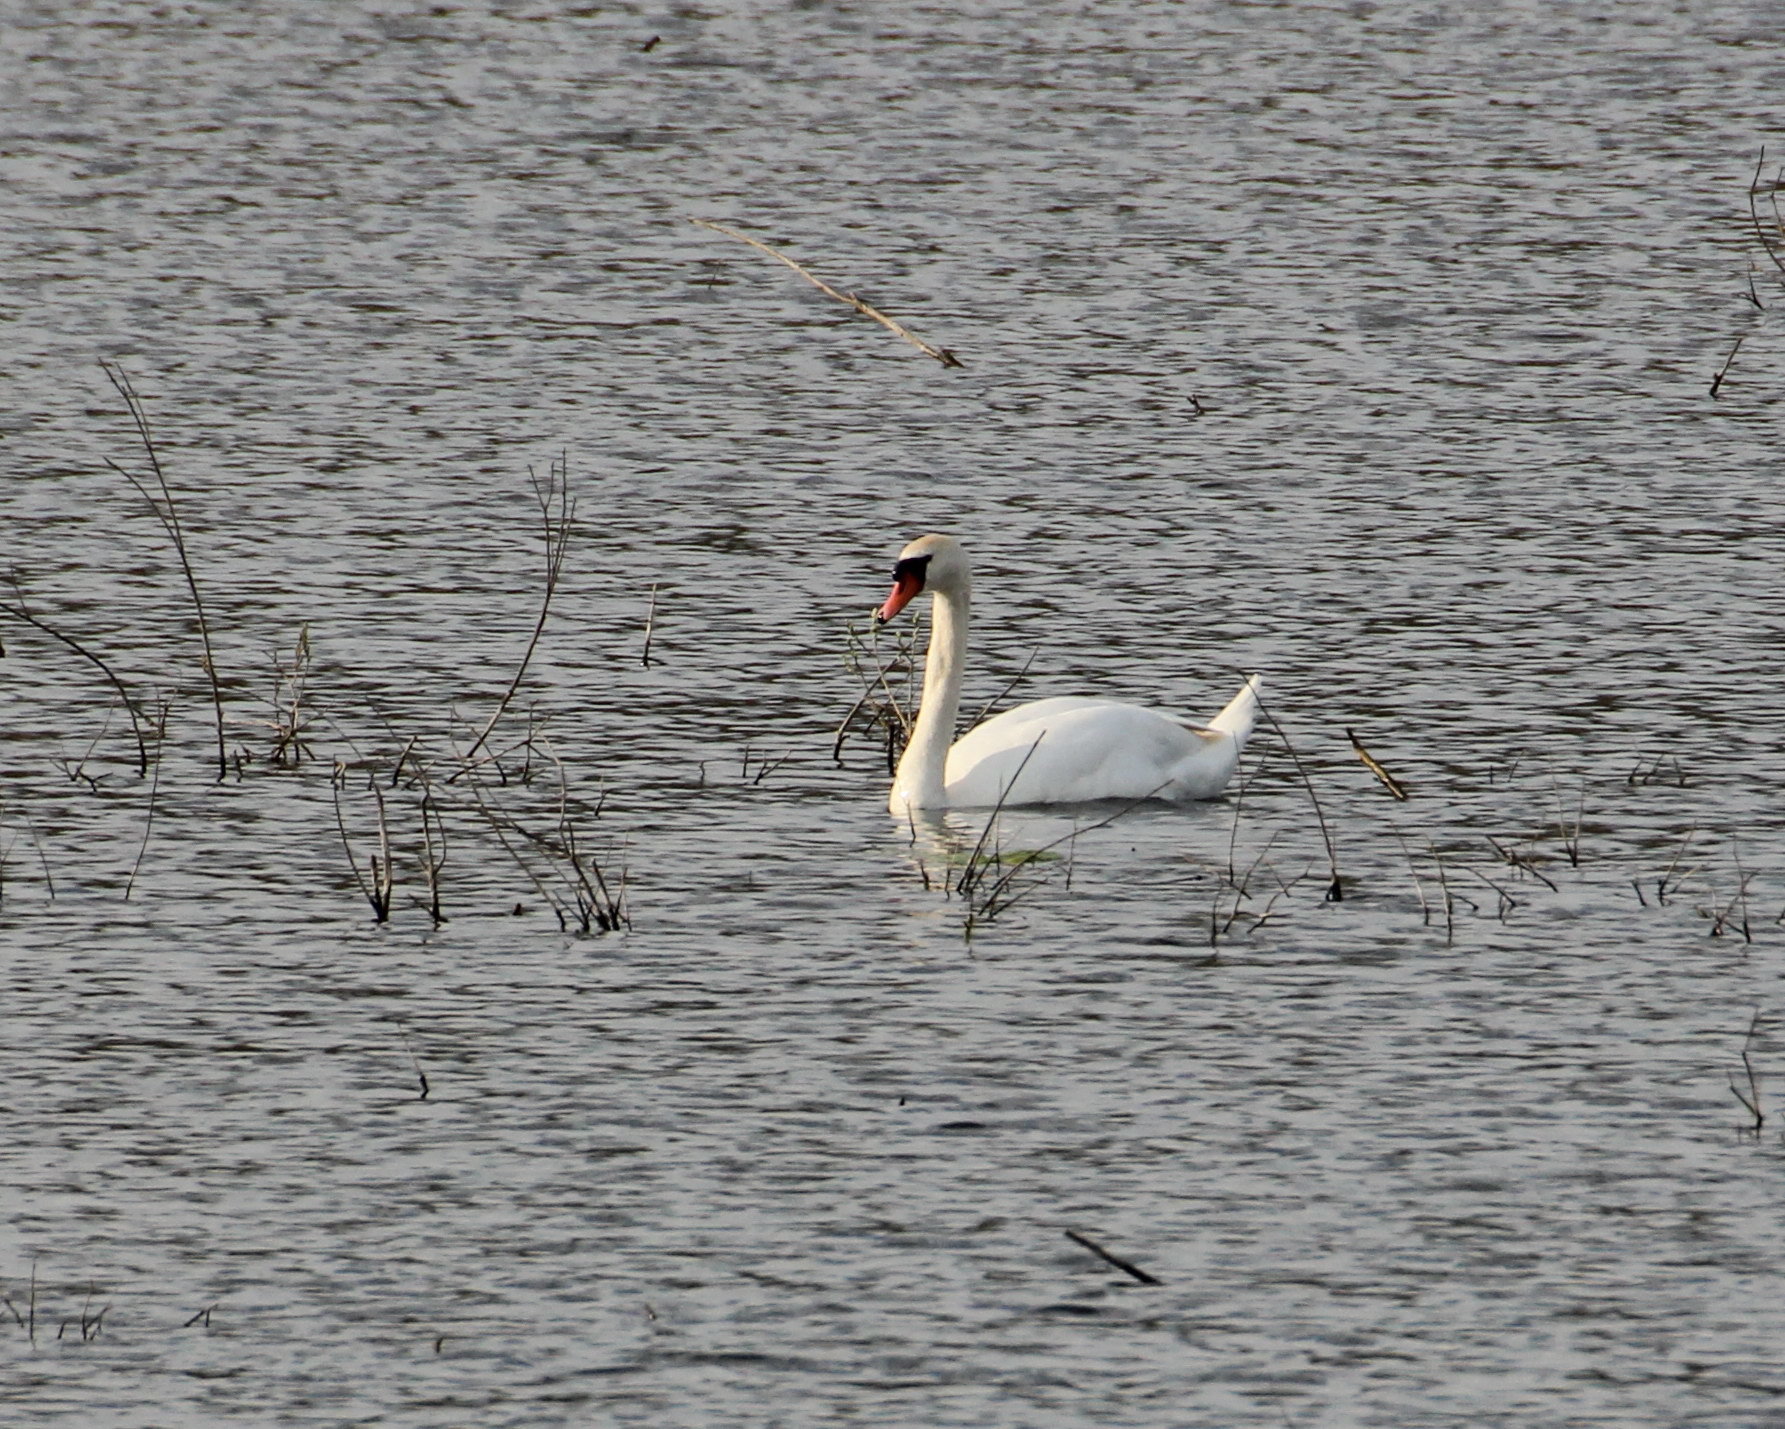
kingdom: Animalia
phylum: Chordata
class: Aves
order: Anseriformes
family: Anatidae
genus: Cygnus
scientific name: Cygnus olor
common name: Mute swan
